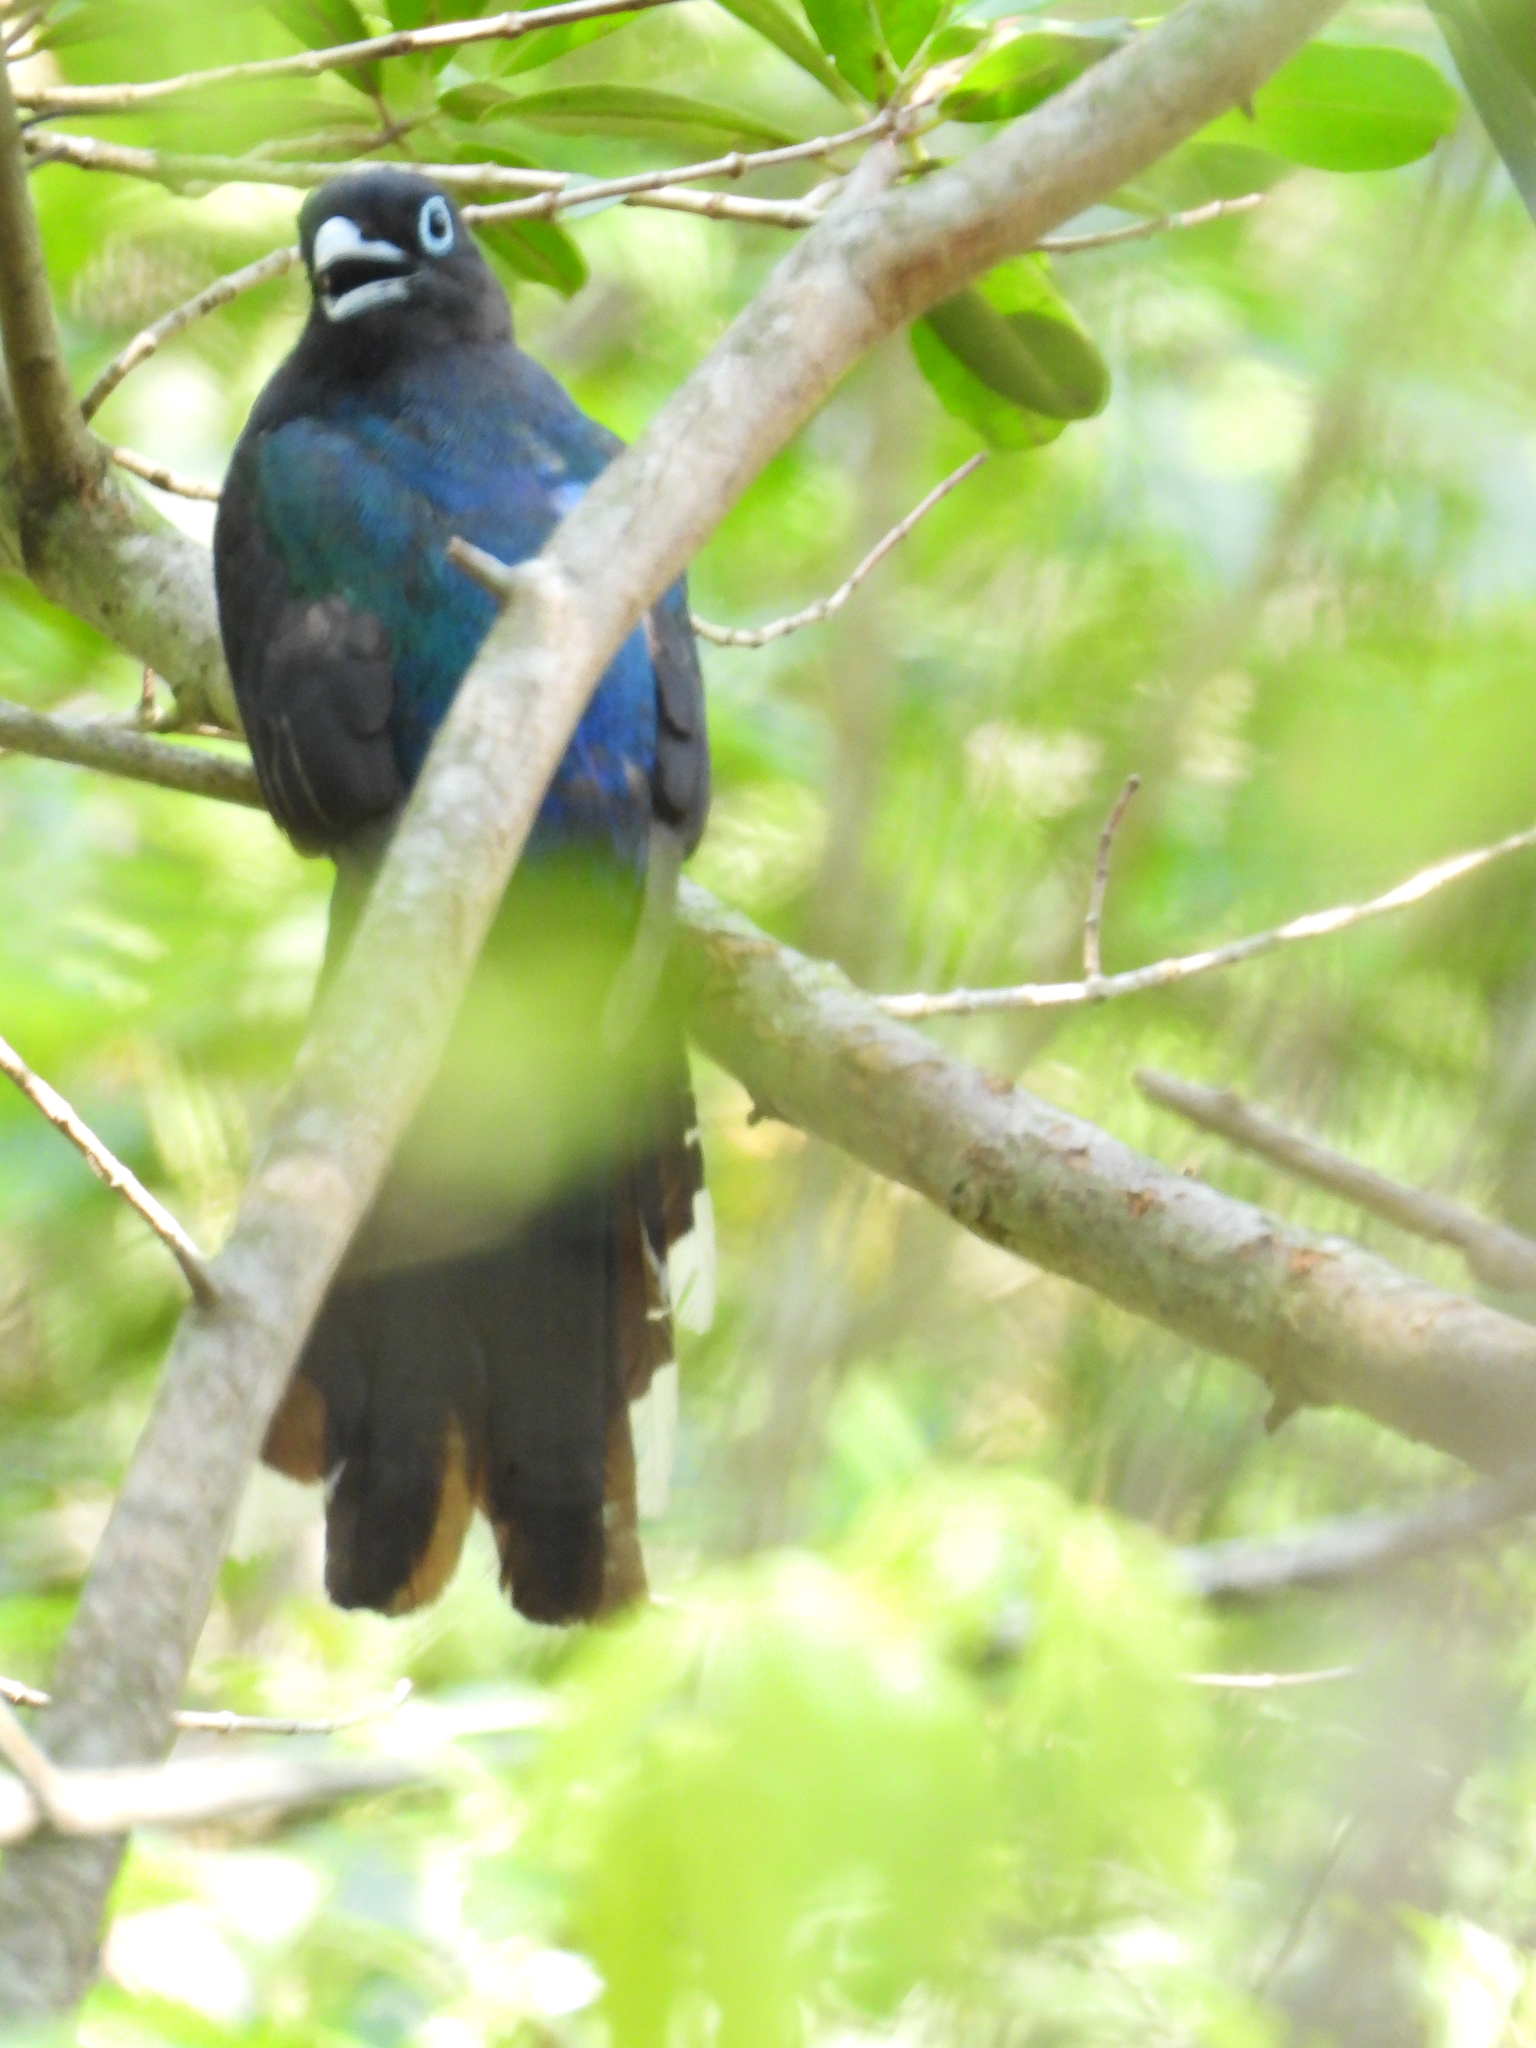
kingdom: Animalia
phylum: Chordata
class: Aves
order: Trogoniformes
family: Trogonidae
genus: Trogon
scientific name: Trogon melanocephalus
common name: Black-headed trogon
